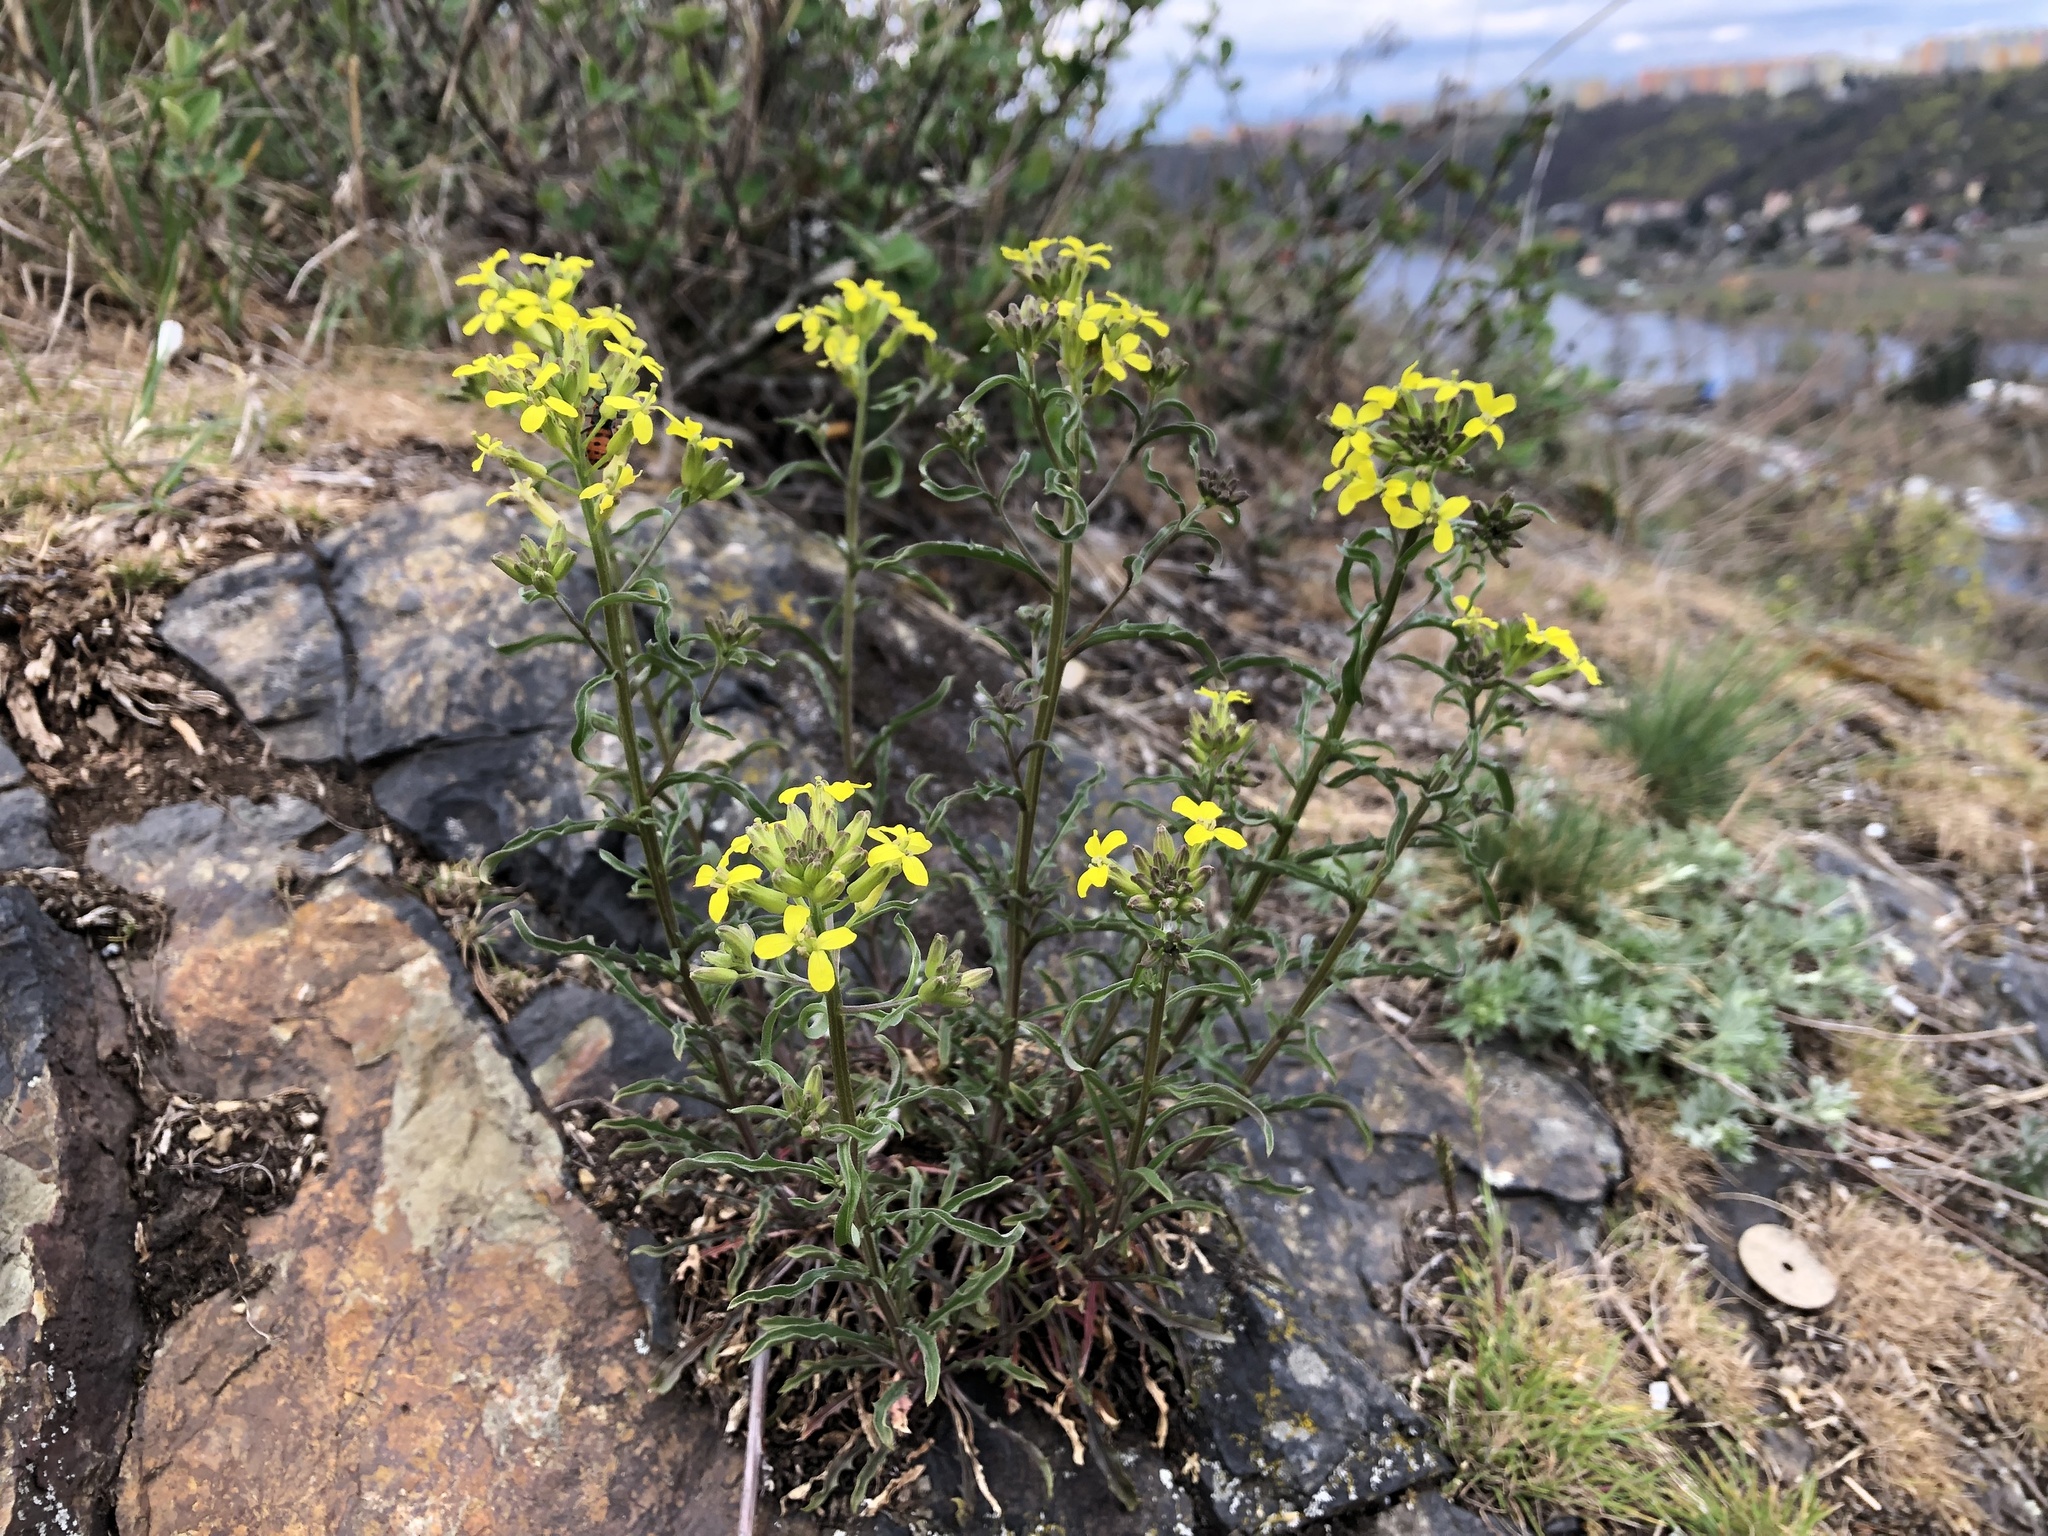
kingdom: Plantae
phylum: Tracheophyta
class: Magnoliopsida
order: Brassicales
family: Brassicaceae
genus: Erysimum
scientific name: Erysimum crepidifolium
